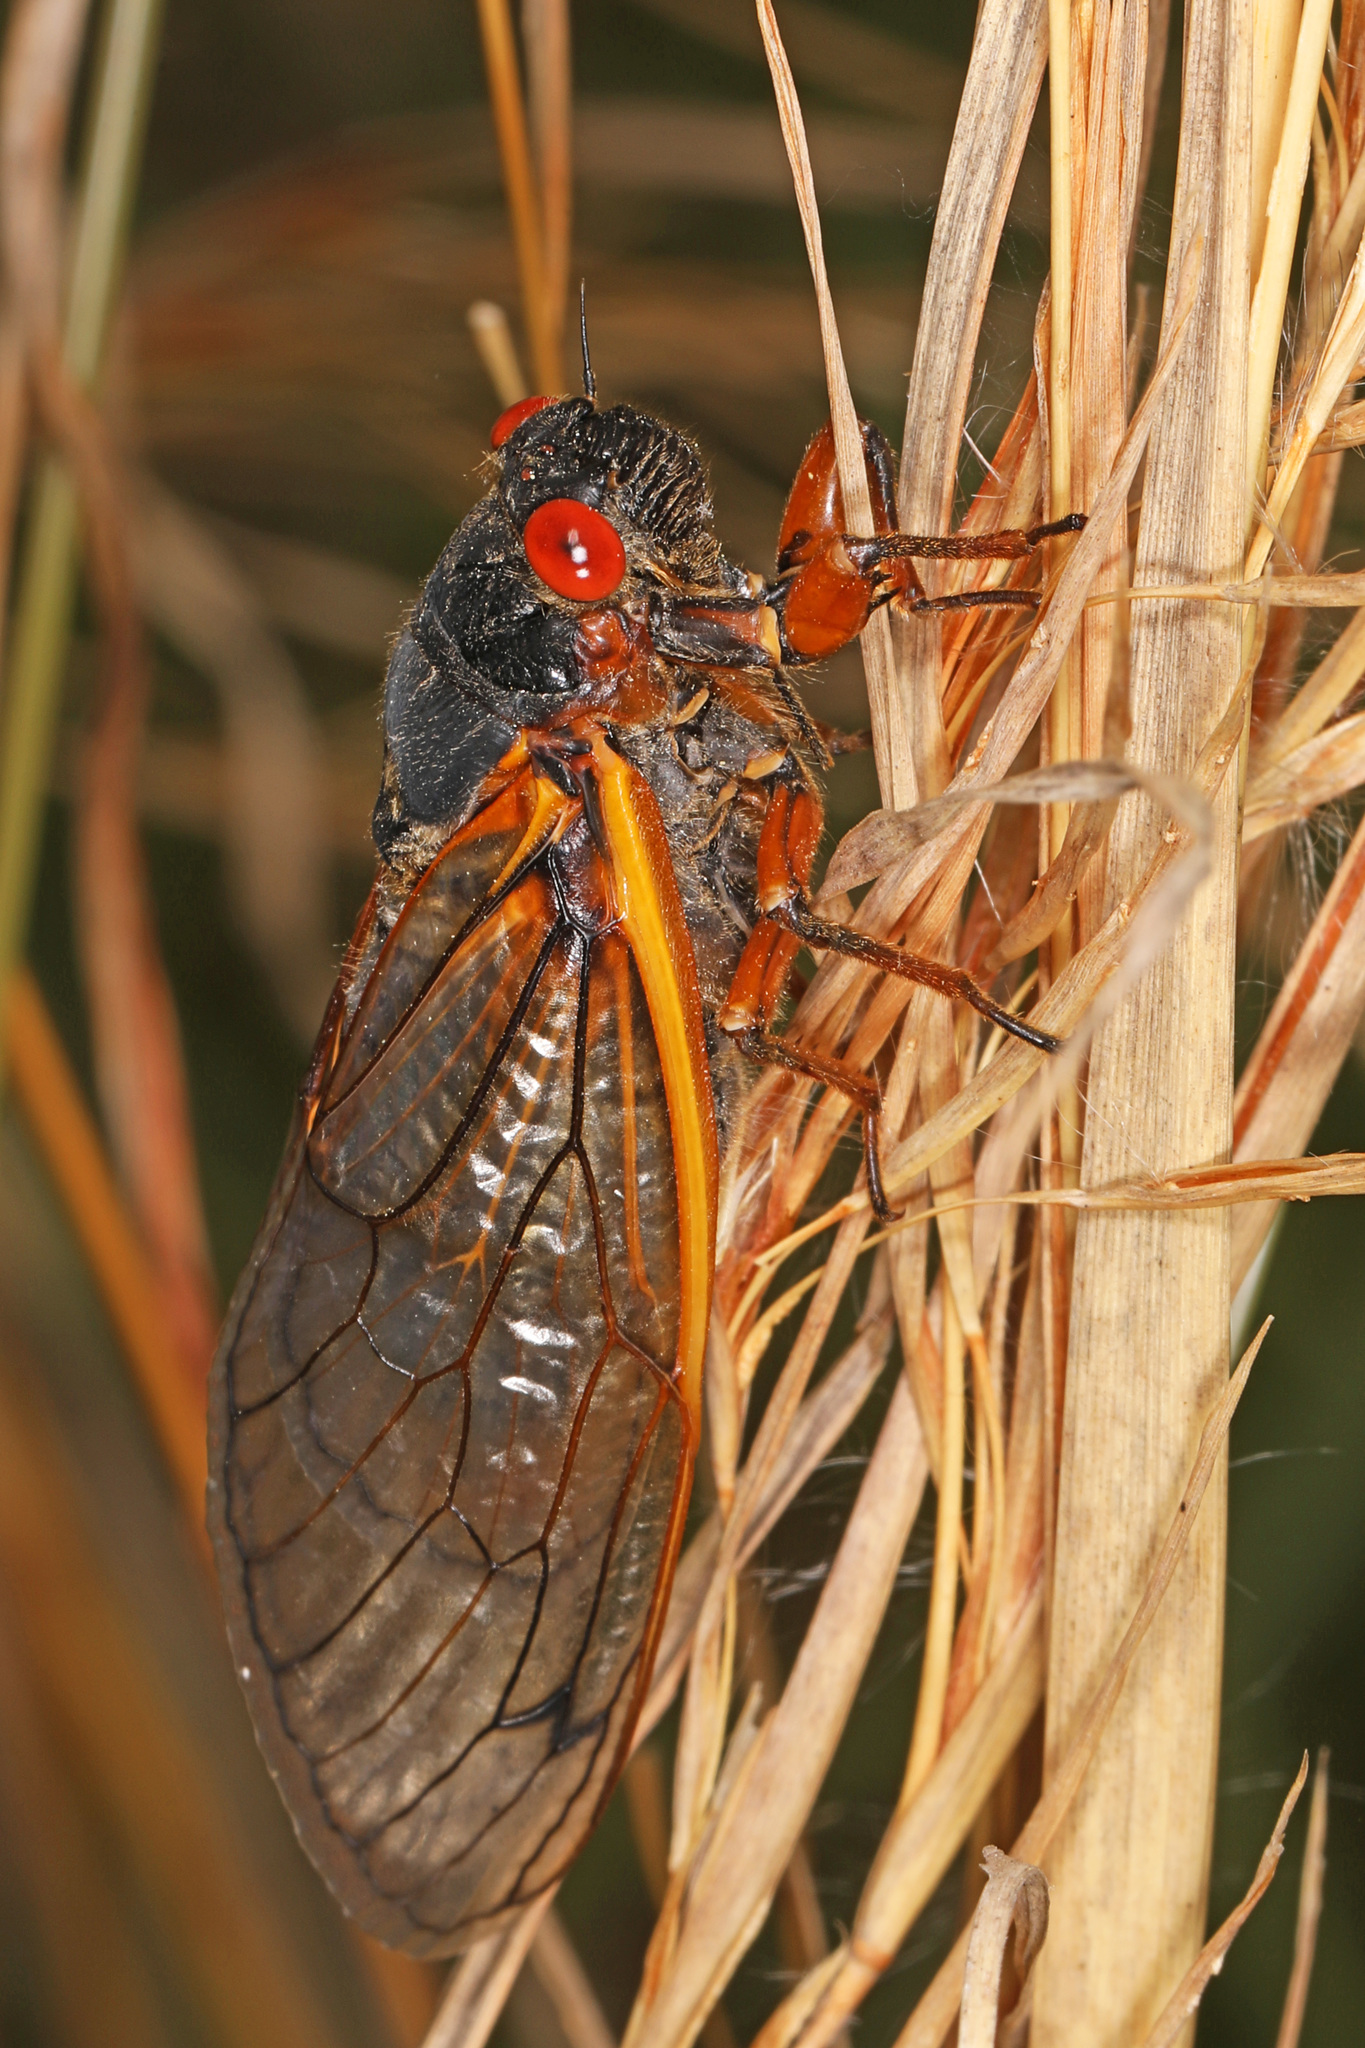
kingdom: Animalia
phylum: Arthropoda
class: Insecta
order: Hemiptera
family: Cicadidae
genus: Magicicada
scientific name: Magicicada septendecim
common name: Periodical cicada
